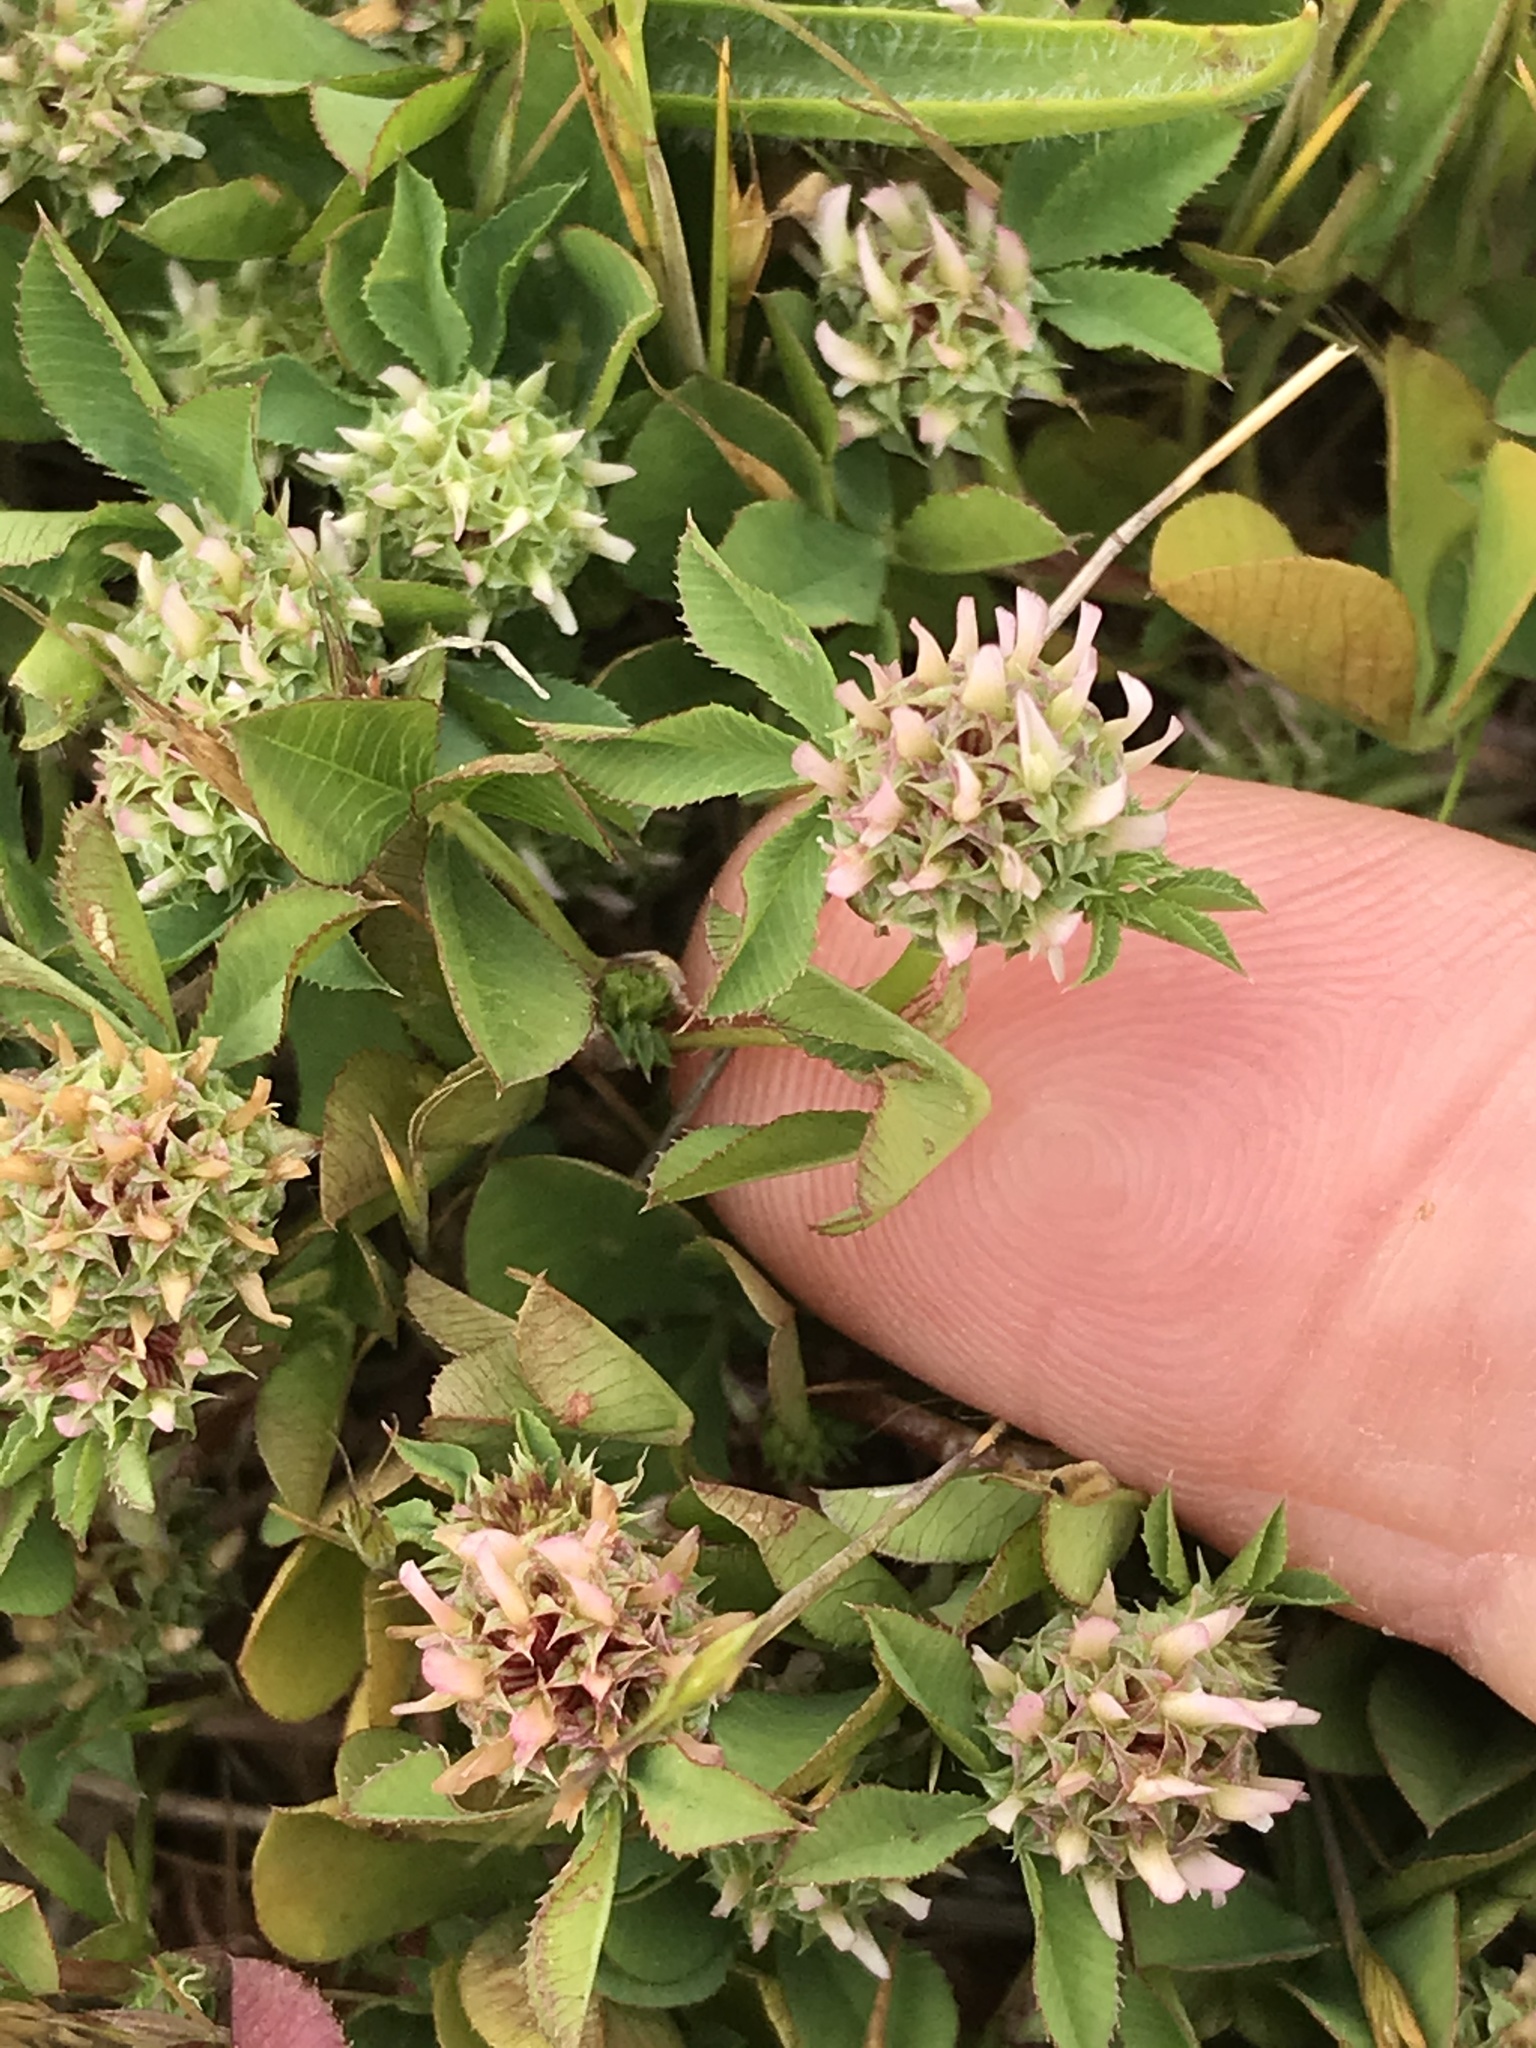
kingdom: Plantae
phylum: Tracheophyta
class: Magnoliopsida
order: Fabales
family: Fabaceae
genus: Trifolium
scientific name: Trifolium glomeratum
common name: Clustered clover
